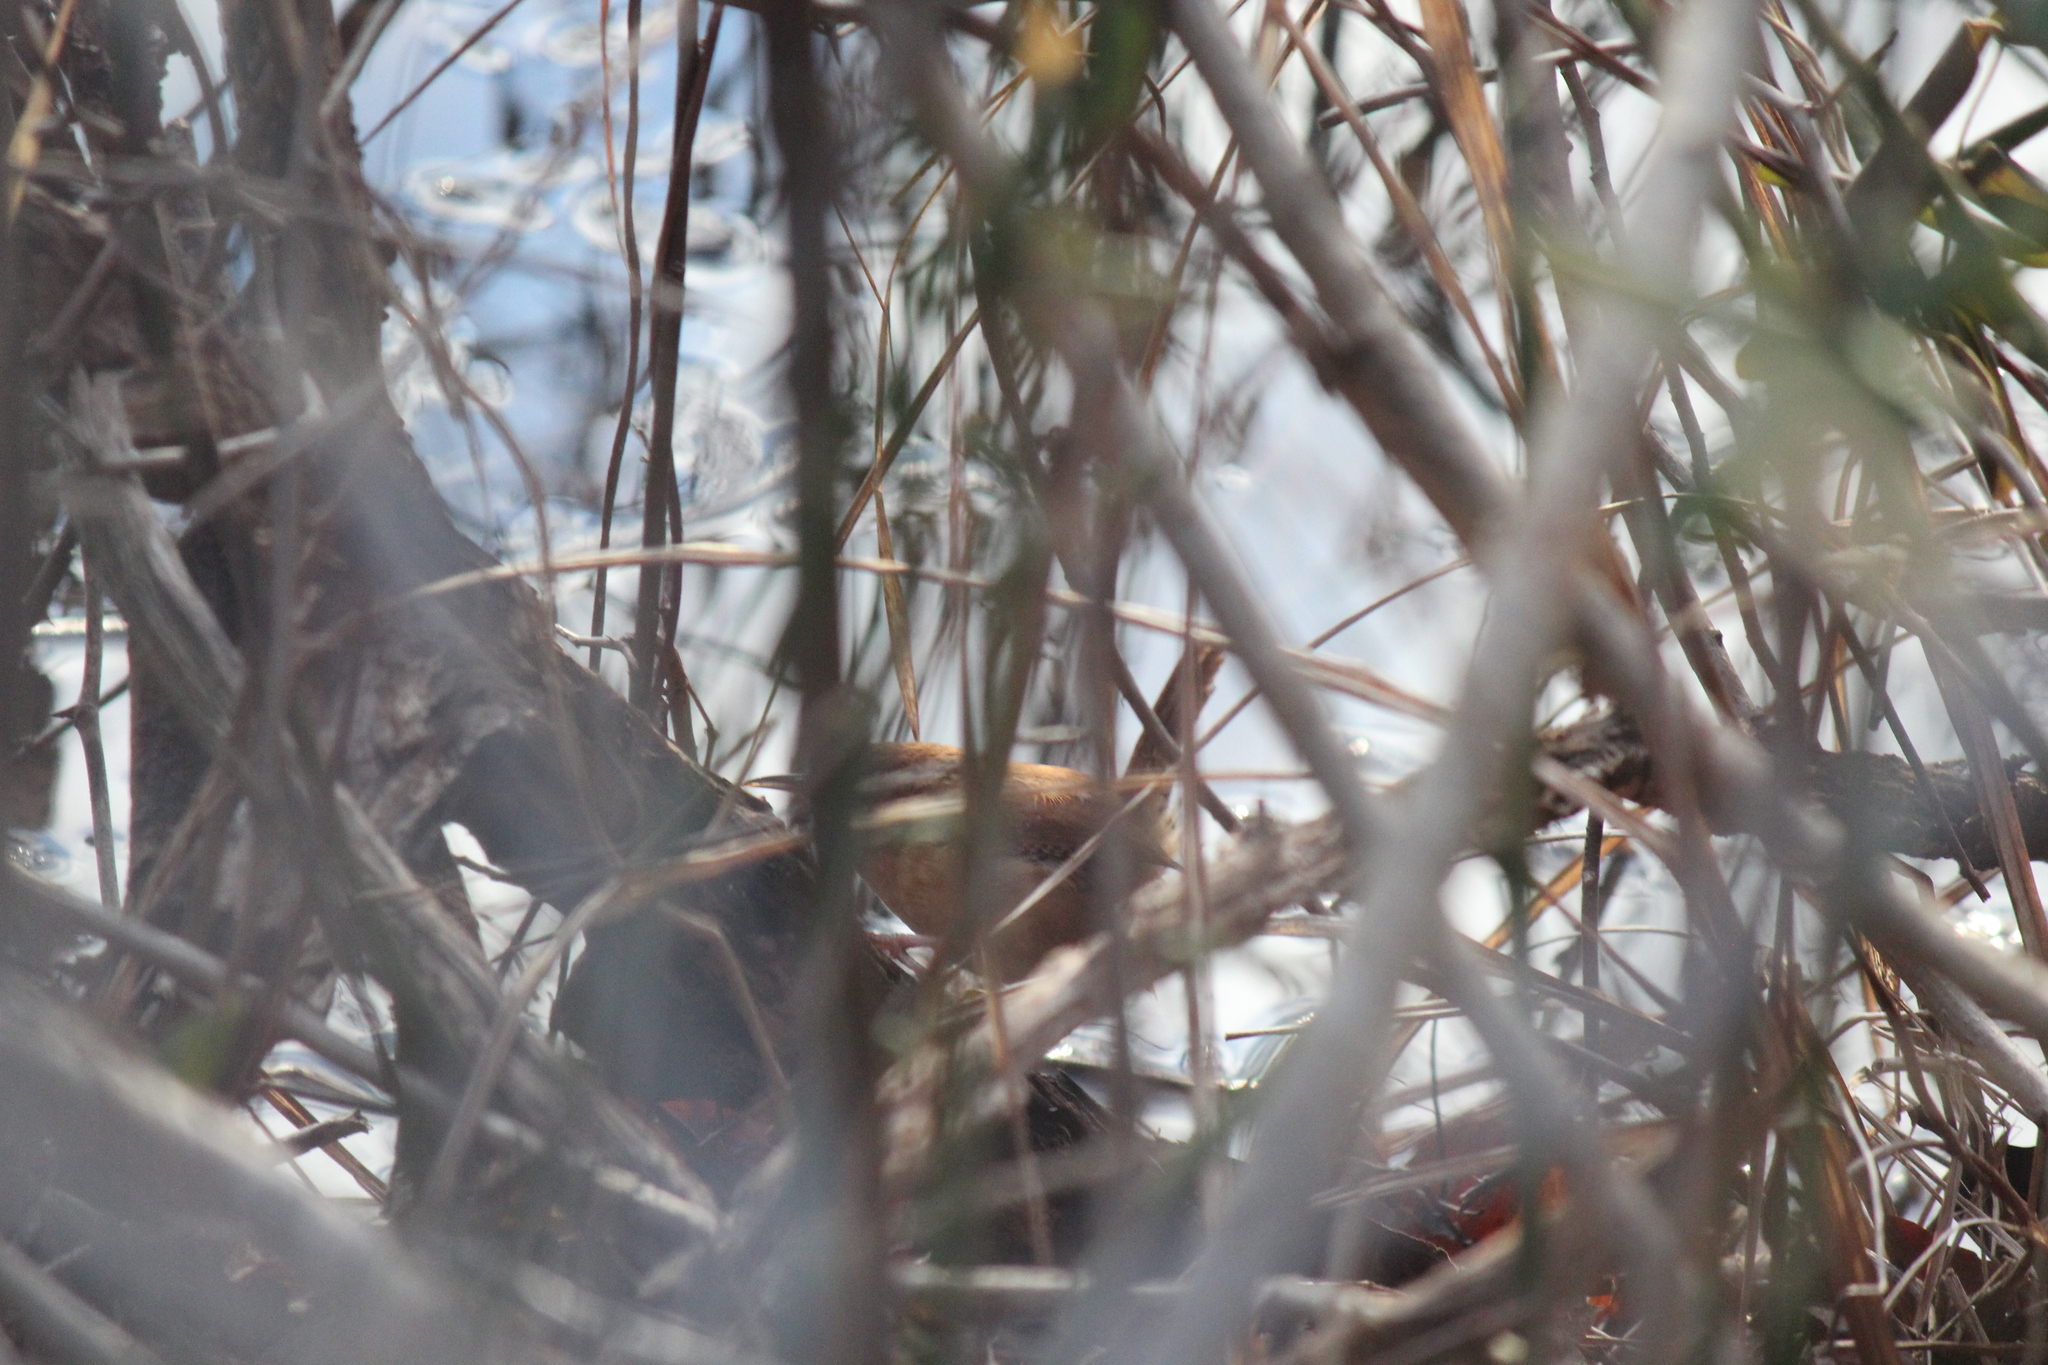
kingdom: Animalia
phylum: Chordata
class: Aves
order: Passeriformes
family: Troglodytidae
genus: Thryothorus
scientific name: Thryothorus ludovicianus
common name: Carolina wren
